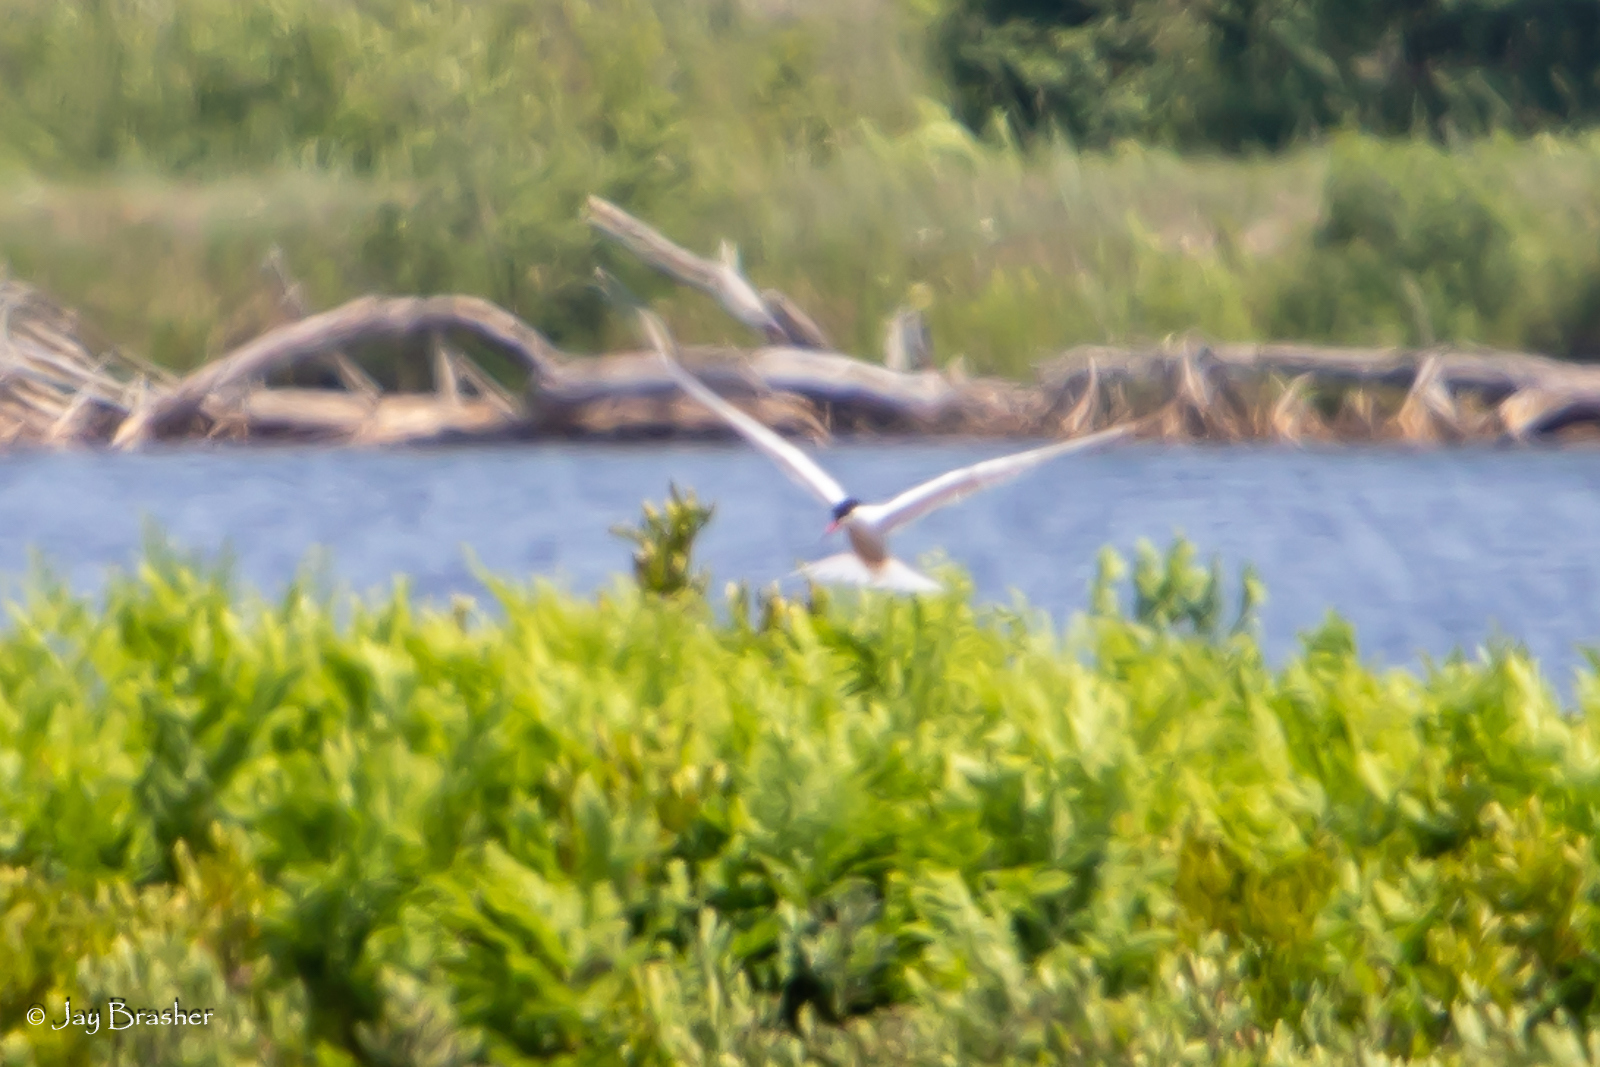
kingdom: Animalia
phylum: Chordata
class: Aves
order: Charadriiformes
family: Laridae
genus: Sterna
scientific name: Sterna hirundo
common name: Common tern
